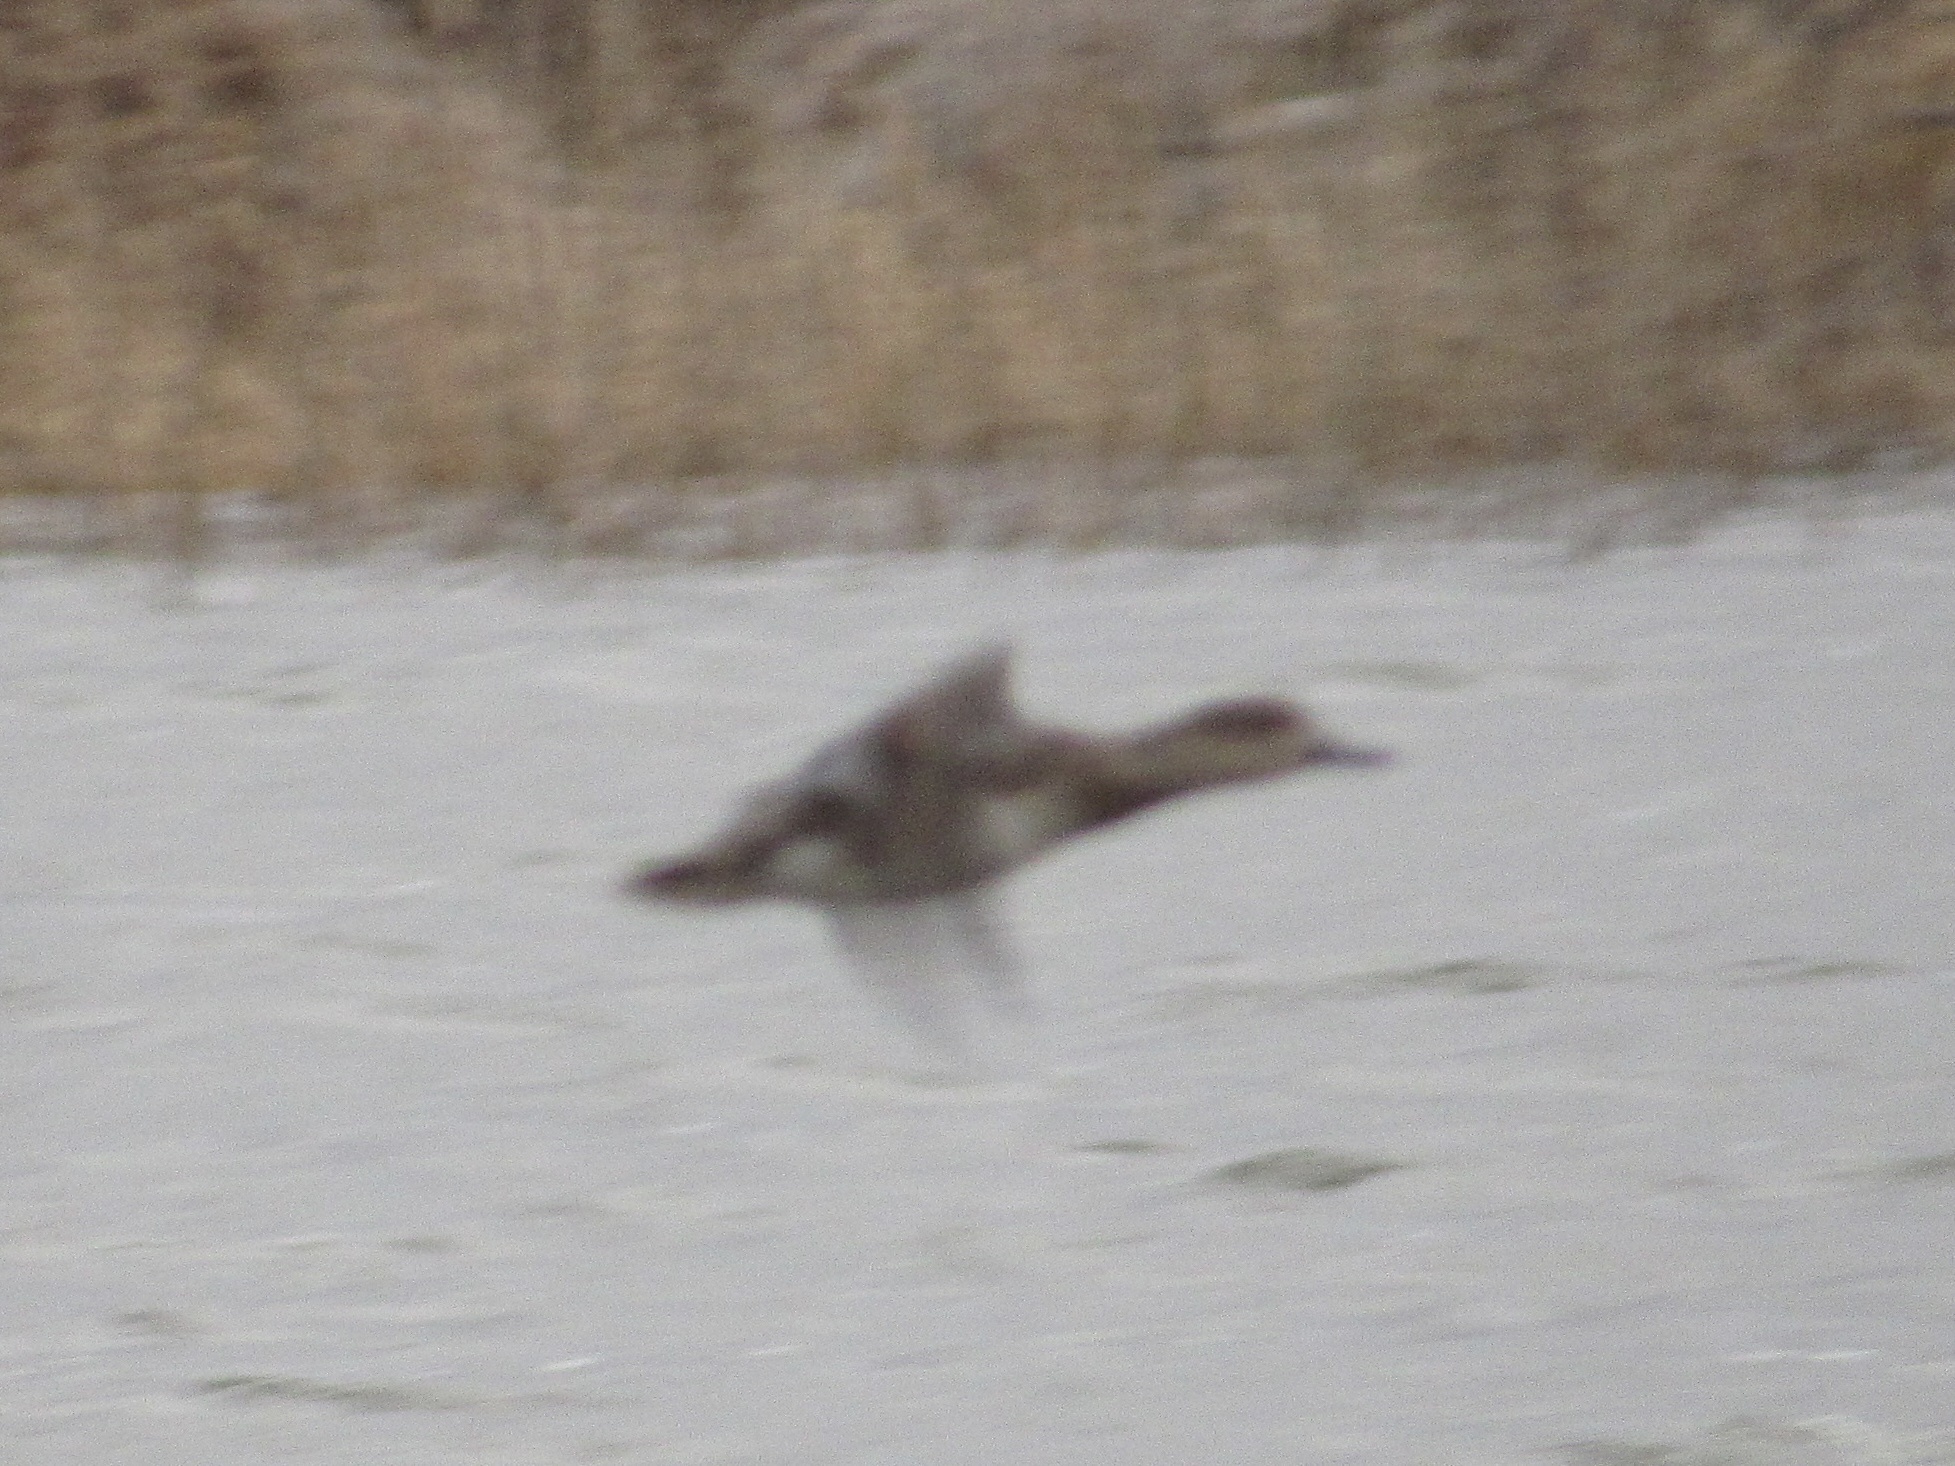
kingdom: Animalia
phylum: Chordata
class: Aves
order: Anseriformes
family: Anatidae
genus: Mareca
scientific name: Mareca strepera
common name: Gadwall
